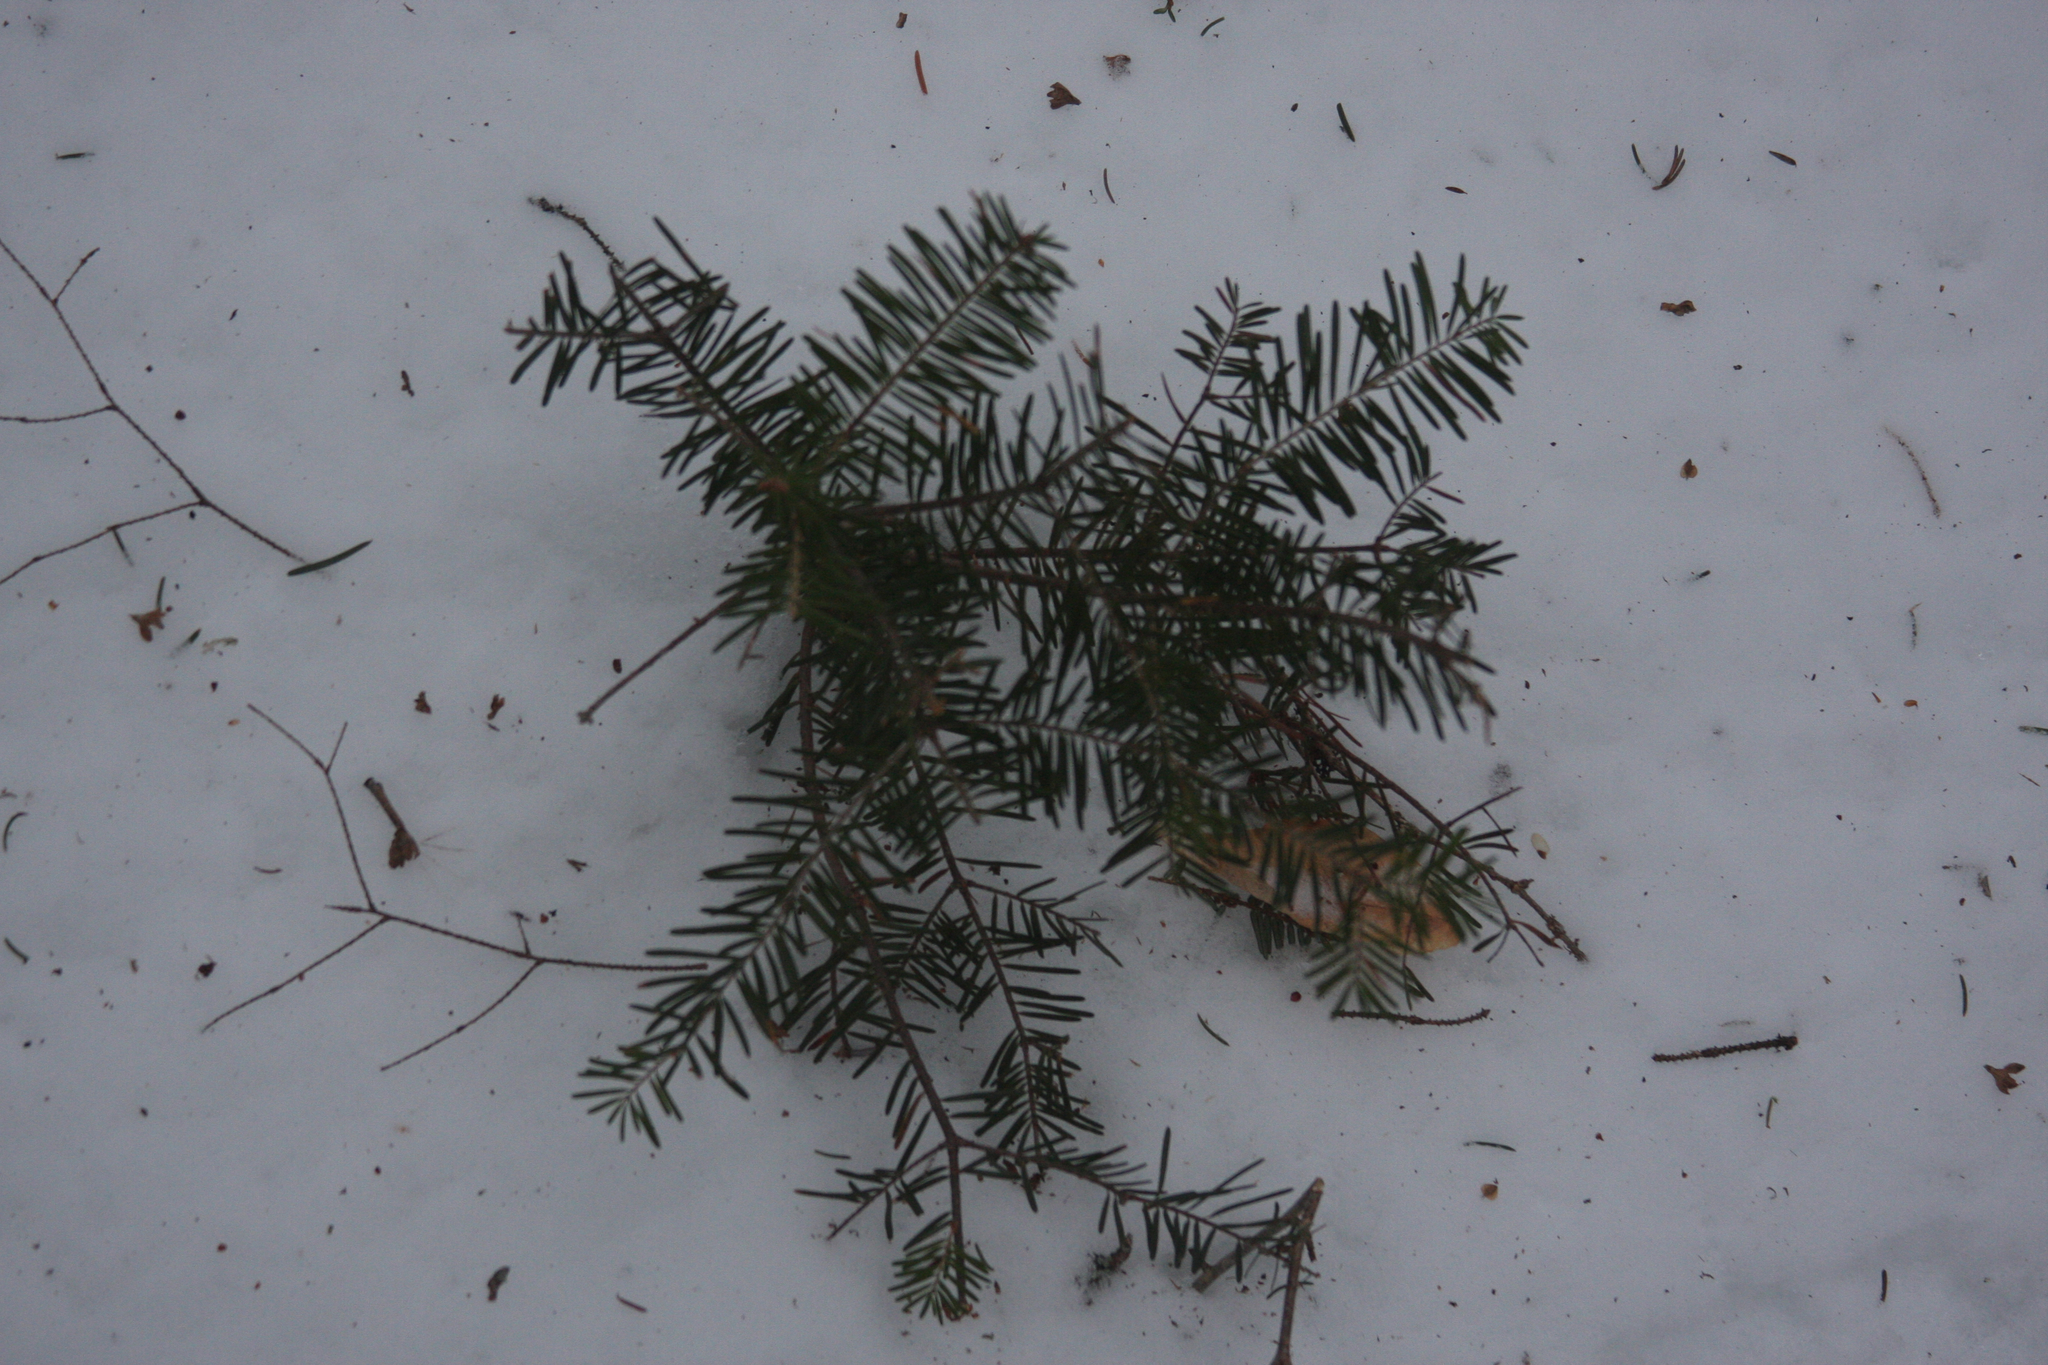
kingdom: Plantae
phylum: Tracheophyta
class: Pinopsida
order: Pinales
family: Pinaceae
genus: Abies
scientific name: Abies balsamea
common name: Balsam fir
